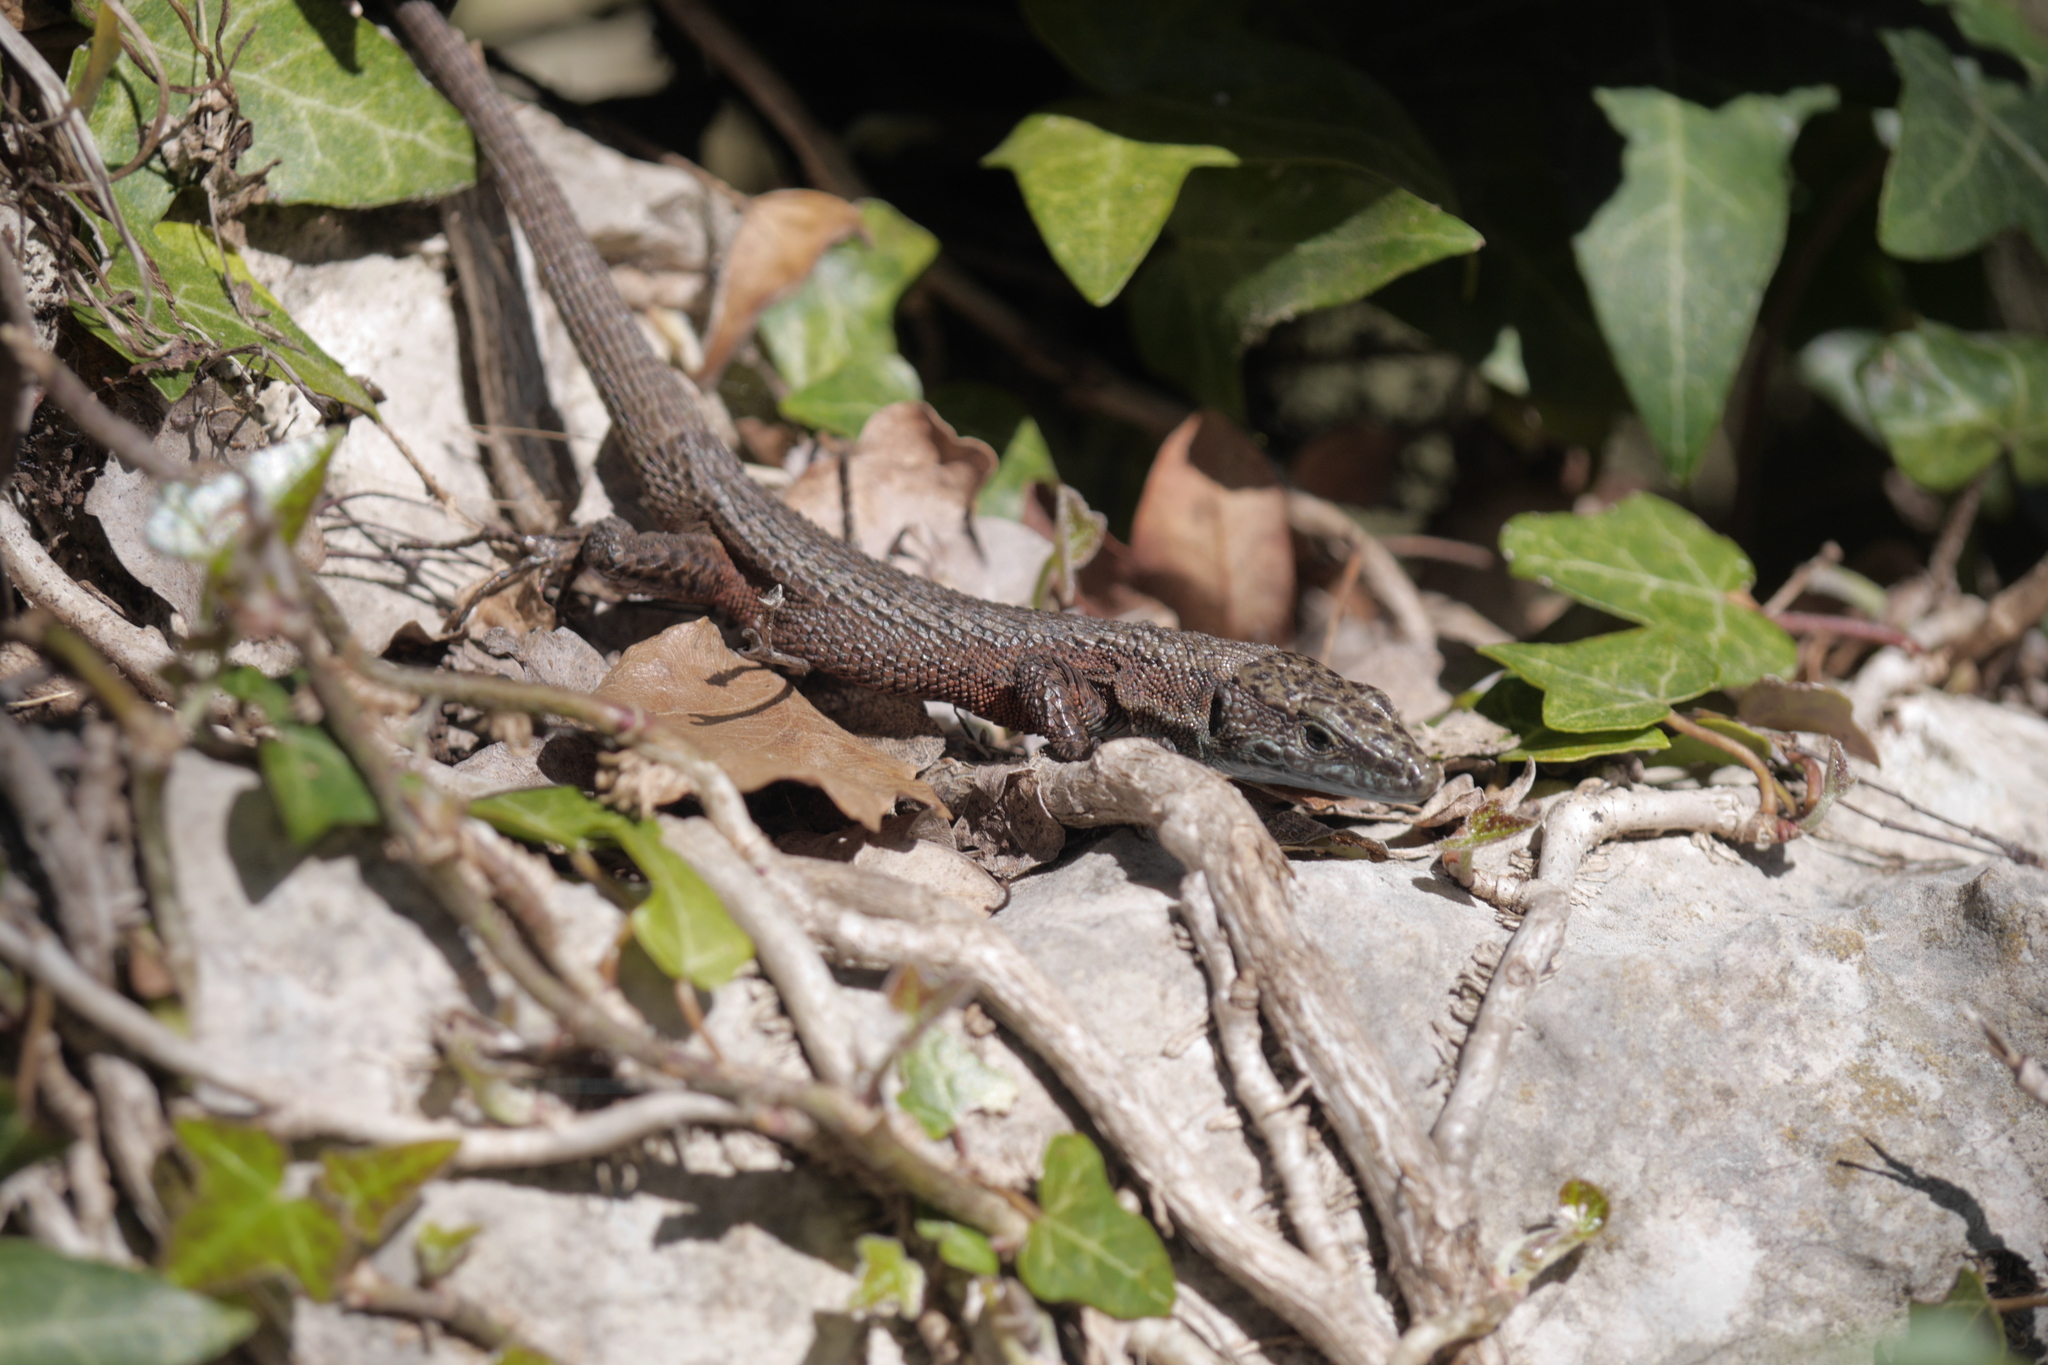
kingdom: Animalia
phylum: Chordata
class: Squamata
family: Lacertidae
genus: Algyroides
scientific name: Algyroides nigropunctatus
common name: Blue-throated keeled lizard
